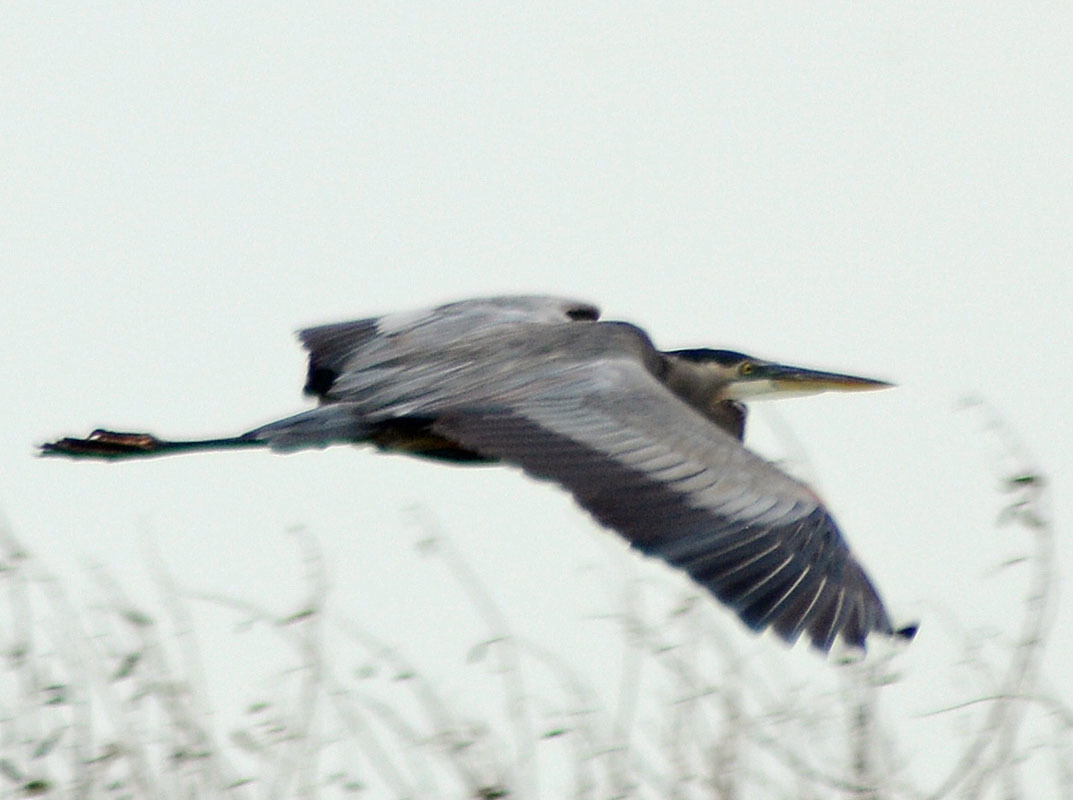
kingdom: Animalia
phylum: Chordata
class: Aves
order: Pelecaniformes
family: Ardeidae
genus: Ardea
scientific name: Ardea herodias
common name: Great blue heron
